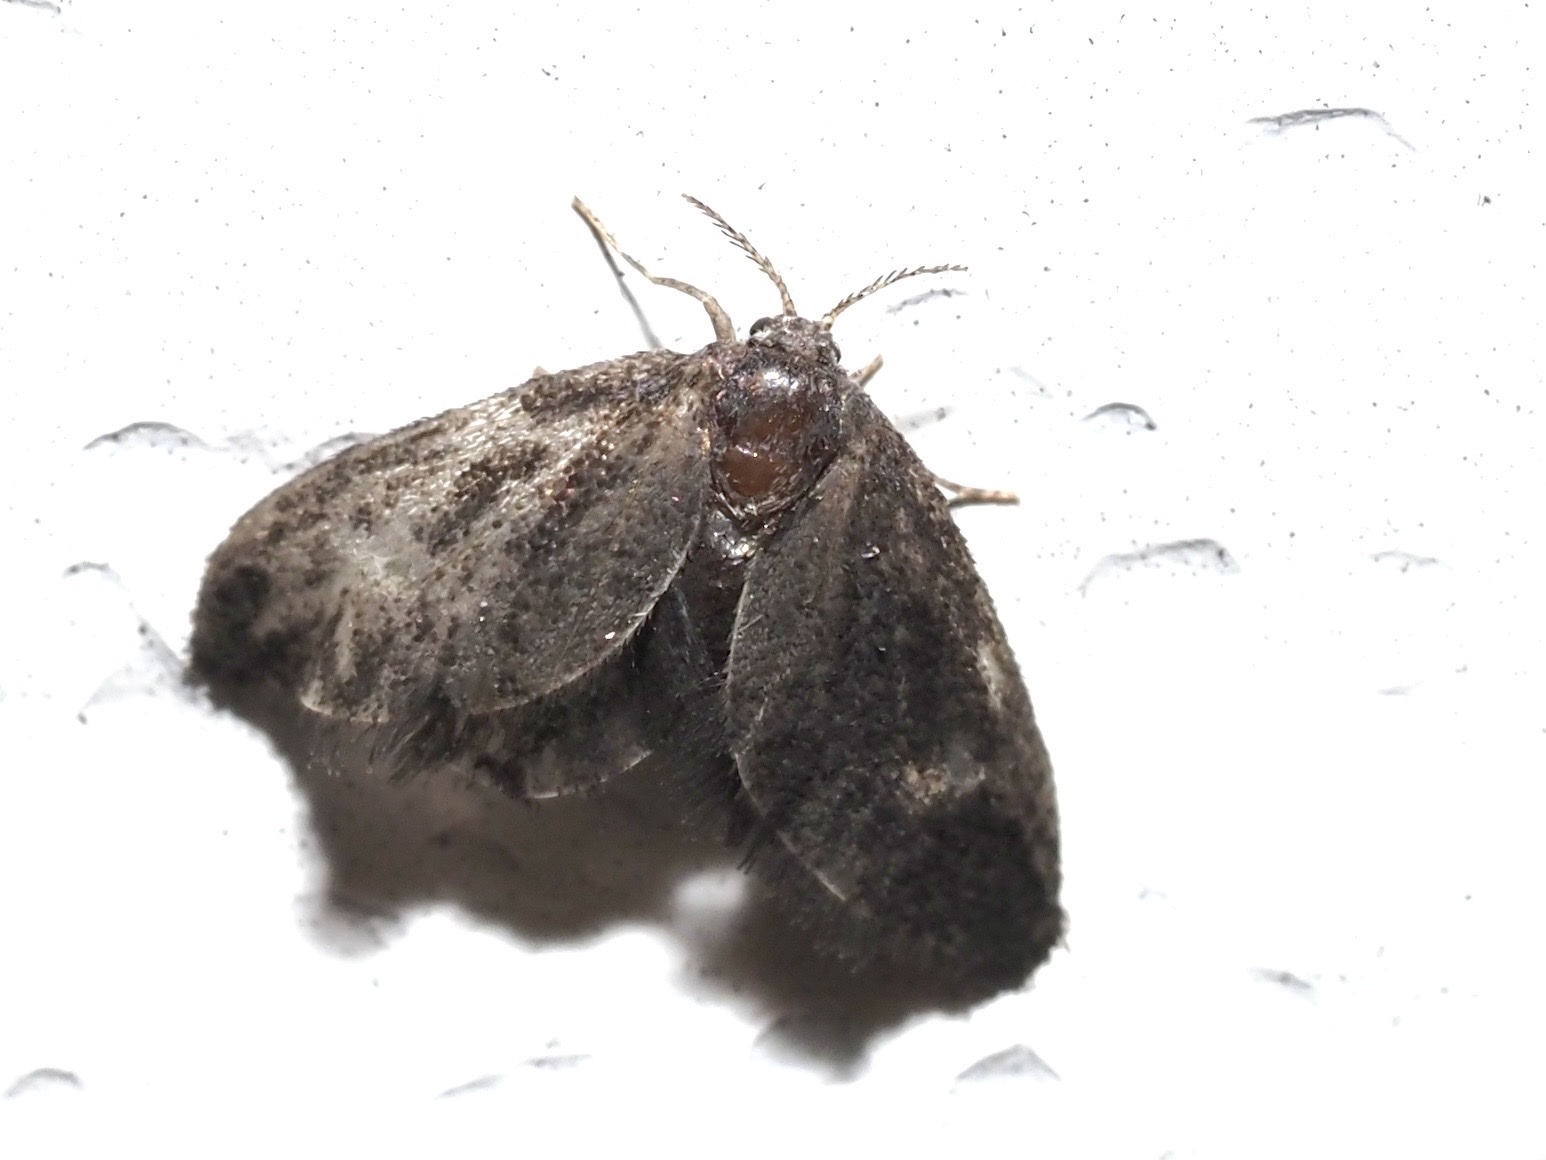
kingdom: Animalia
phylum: Arthropoda
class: Insecta
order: Lepidoptera
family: Epipyropidae
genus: Fulgoraecia
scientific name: Fulgoraecia exigua
